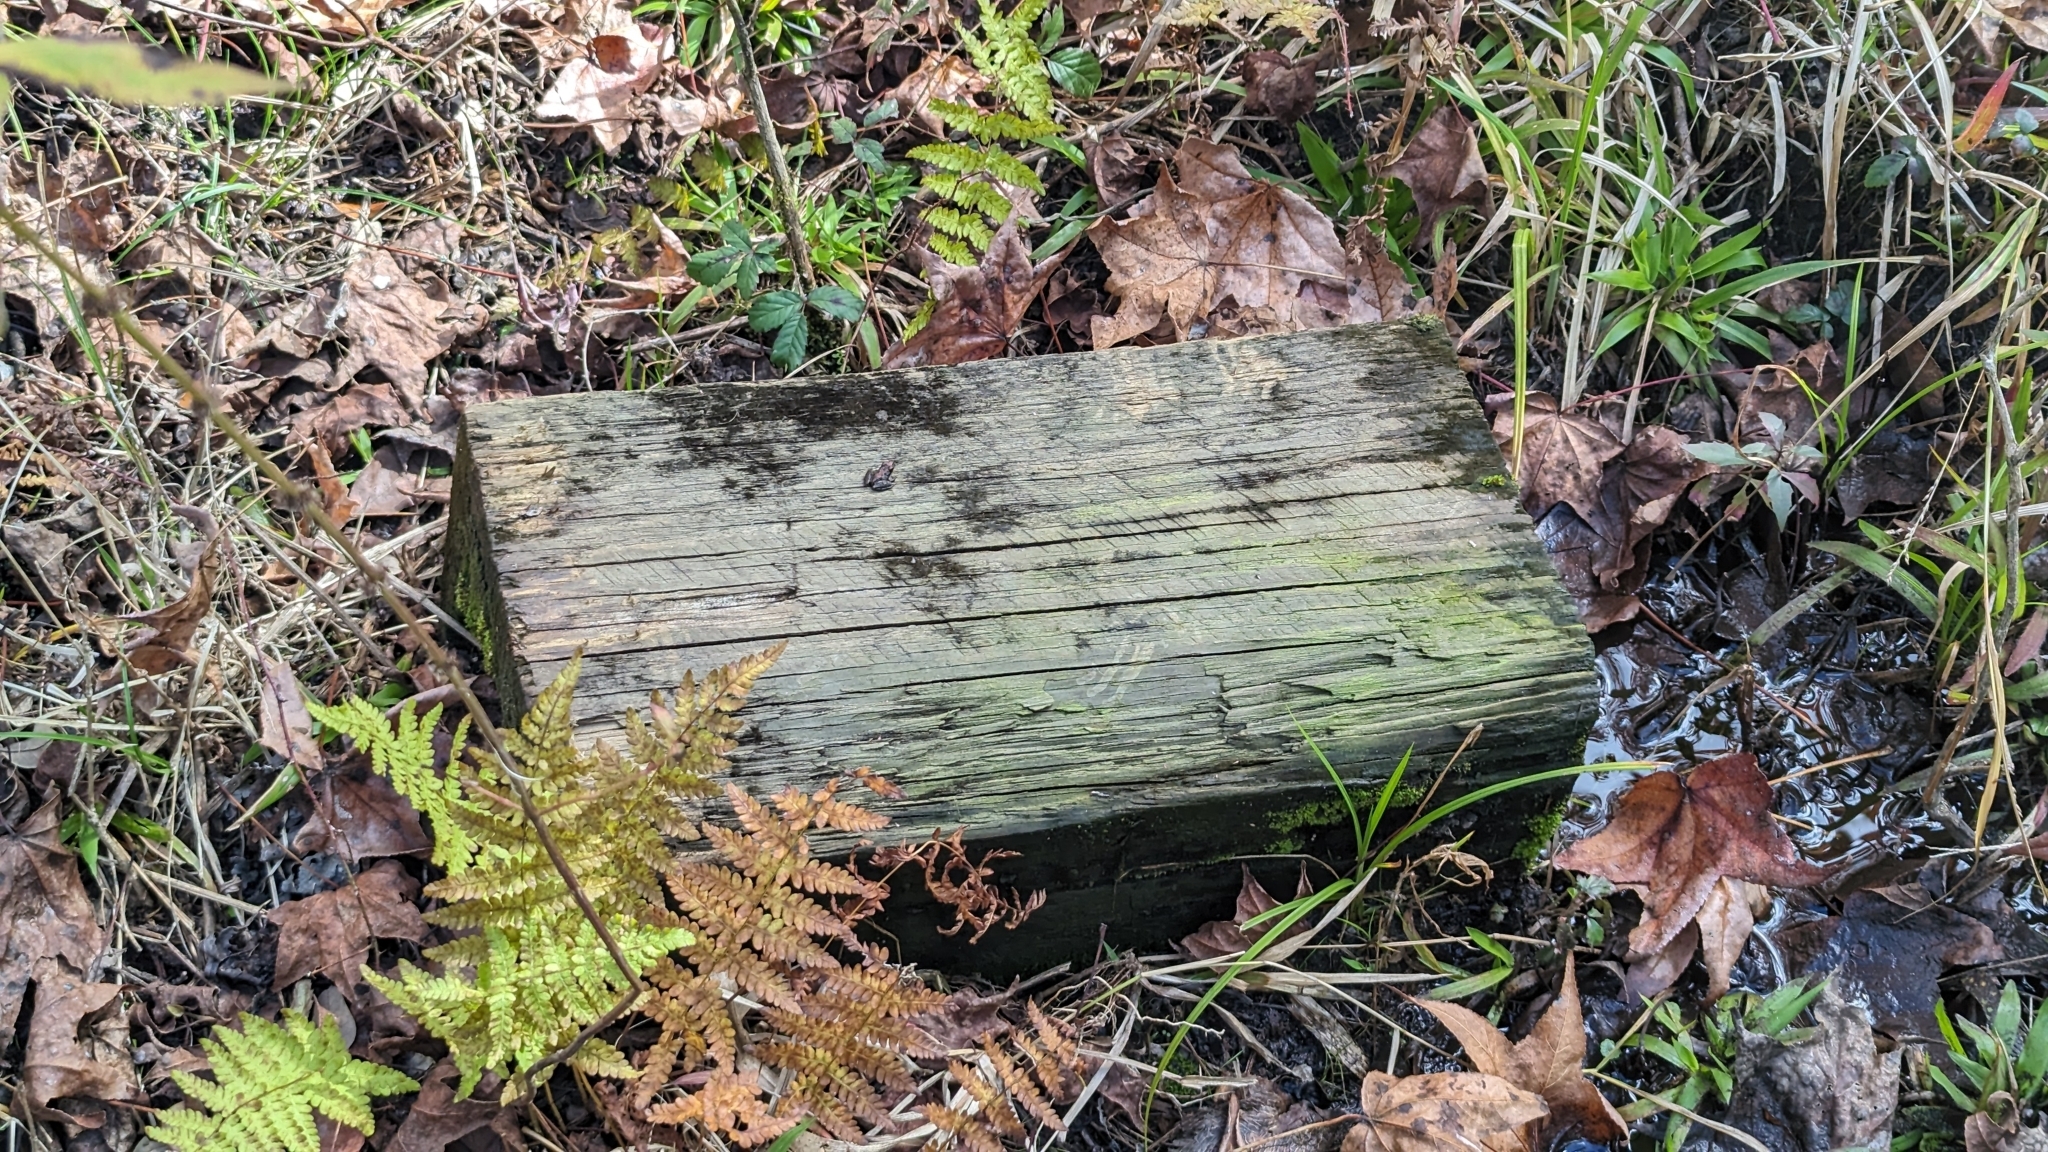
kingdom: Animalia
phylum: Chordata
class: Amphibia
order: Anura
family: Hylidae
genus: Acris
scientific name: Acris gryllus
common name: Southern cricket frog
